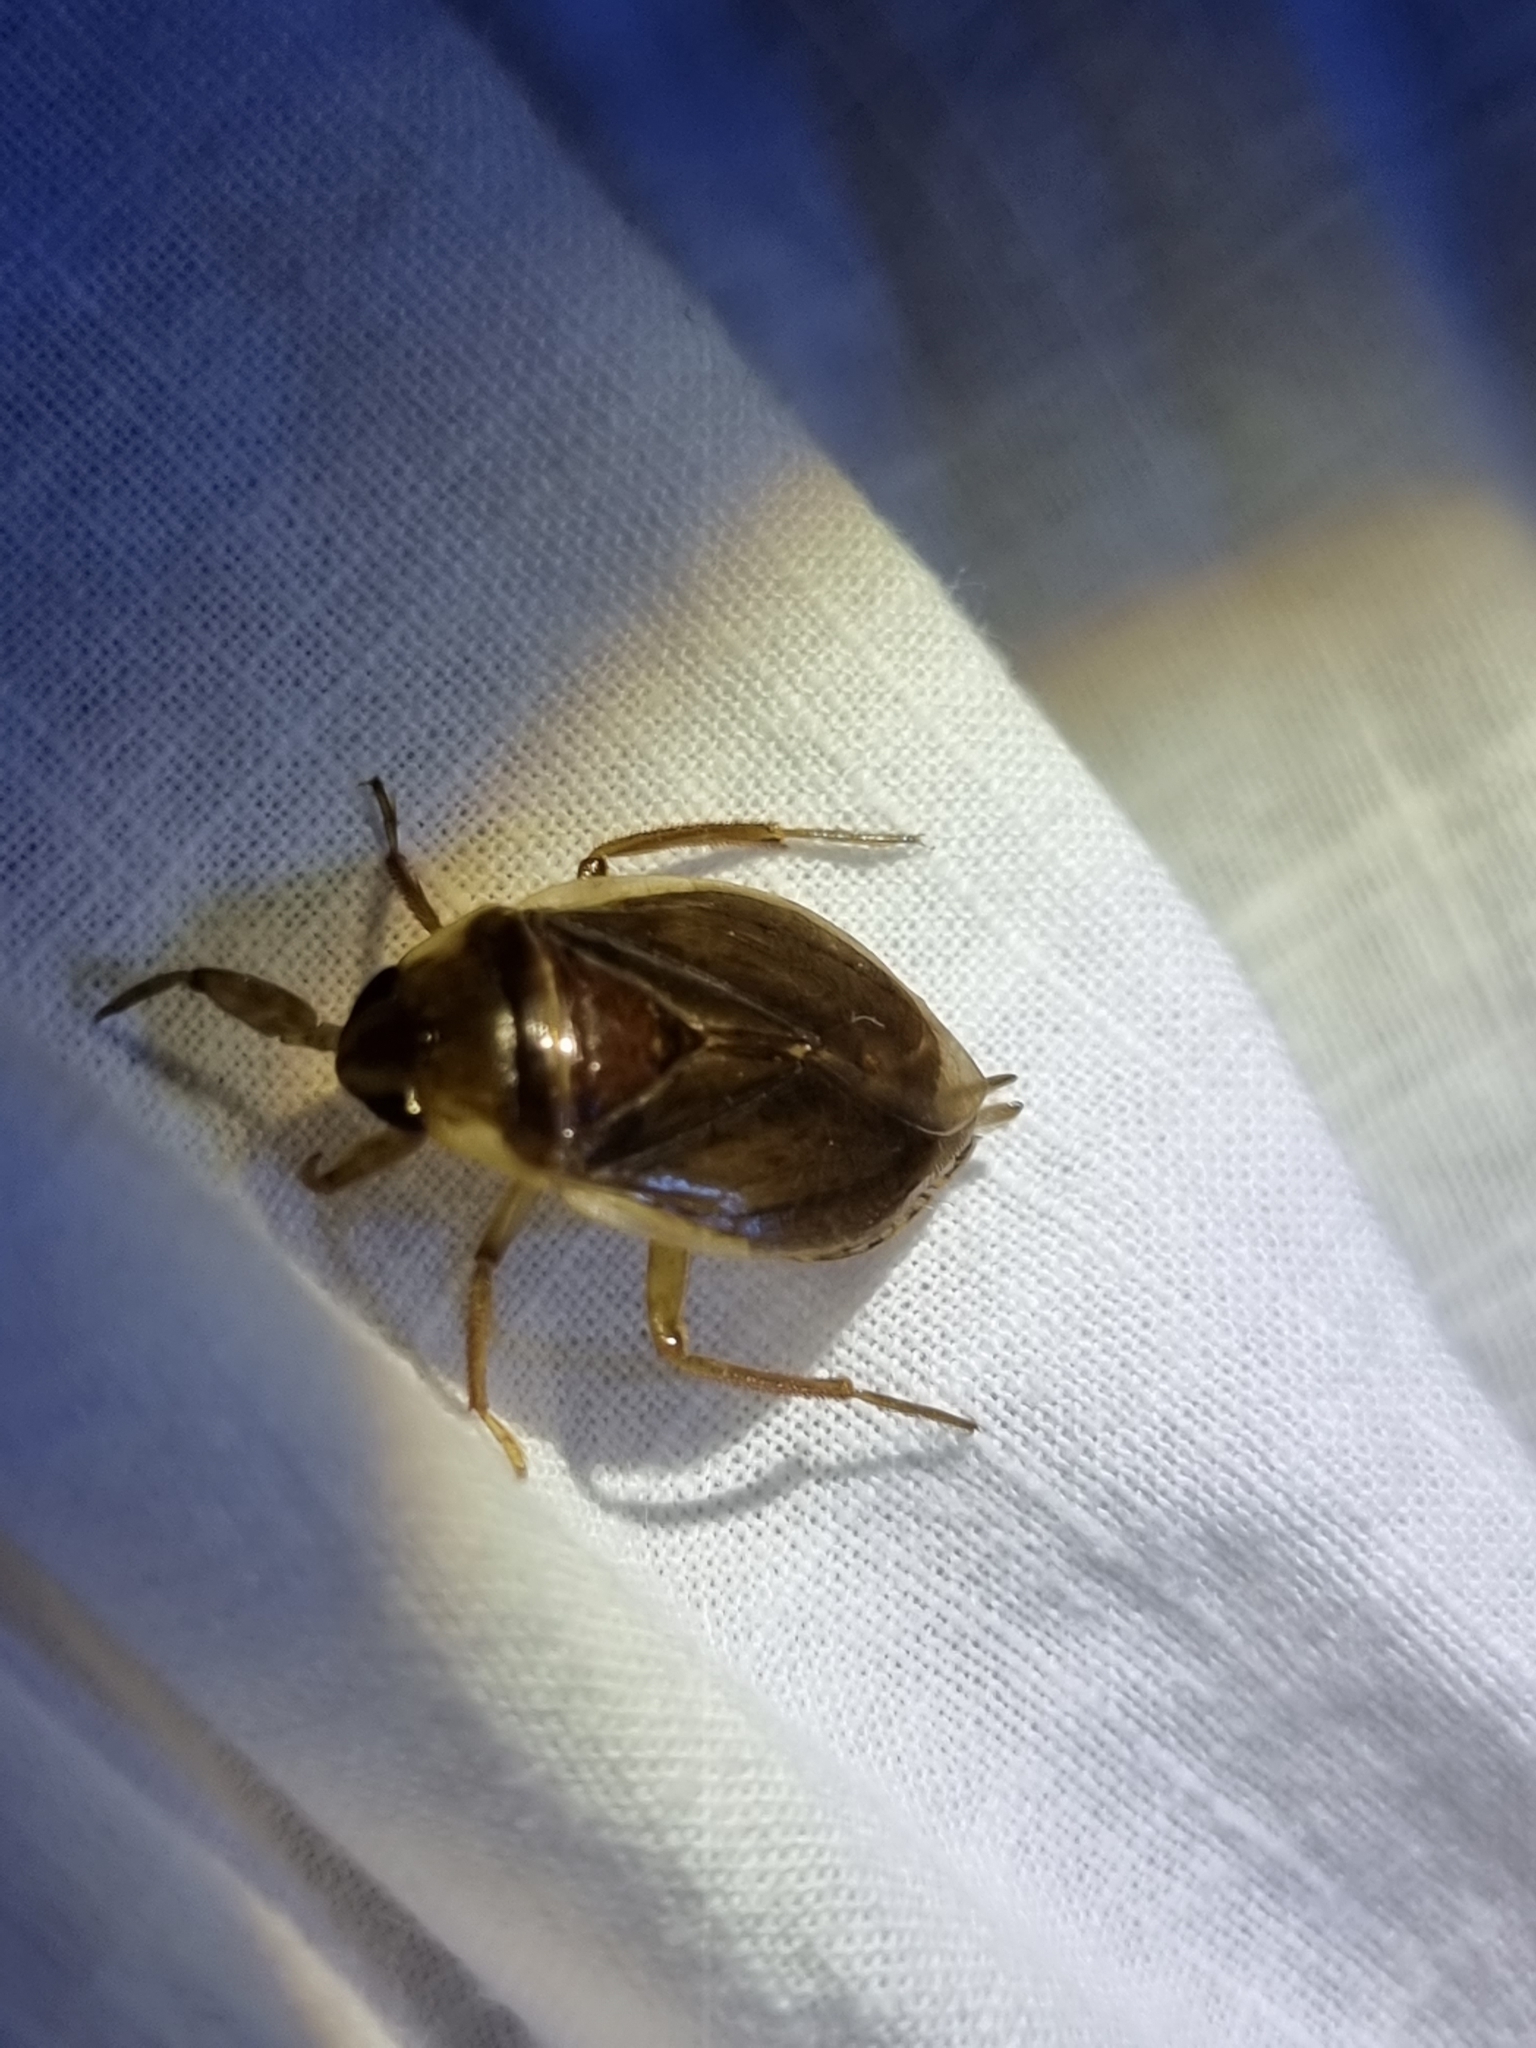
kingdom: Animalia
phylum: Arthropoda
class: Insecta
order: Hemiptera
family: Belostomatidae
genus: Diplonychus
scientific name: Diplonychus eques
